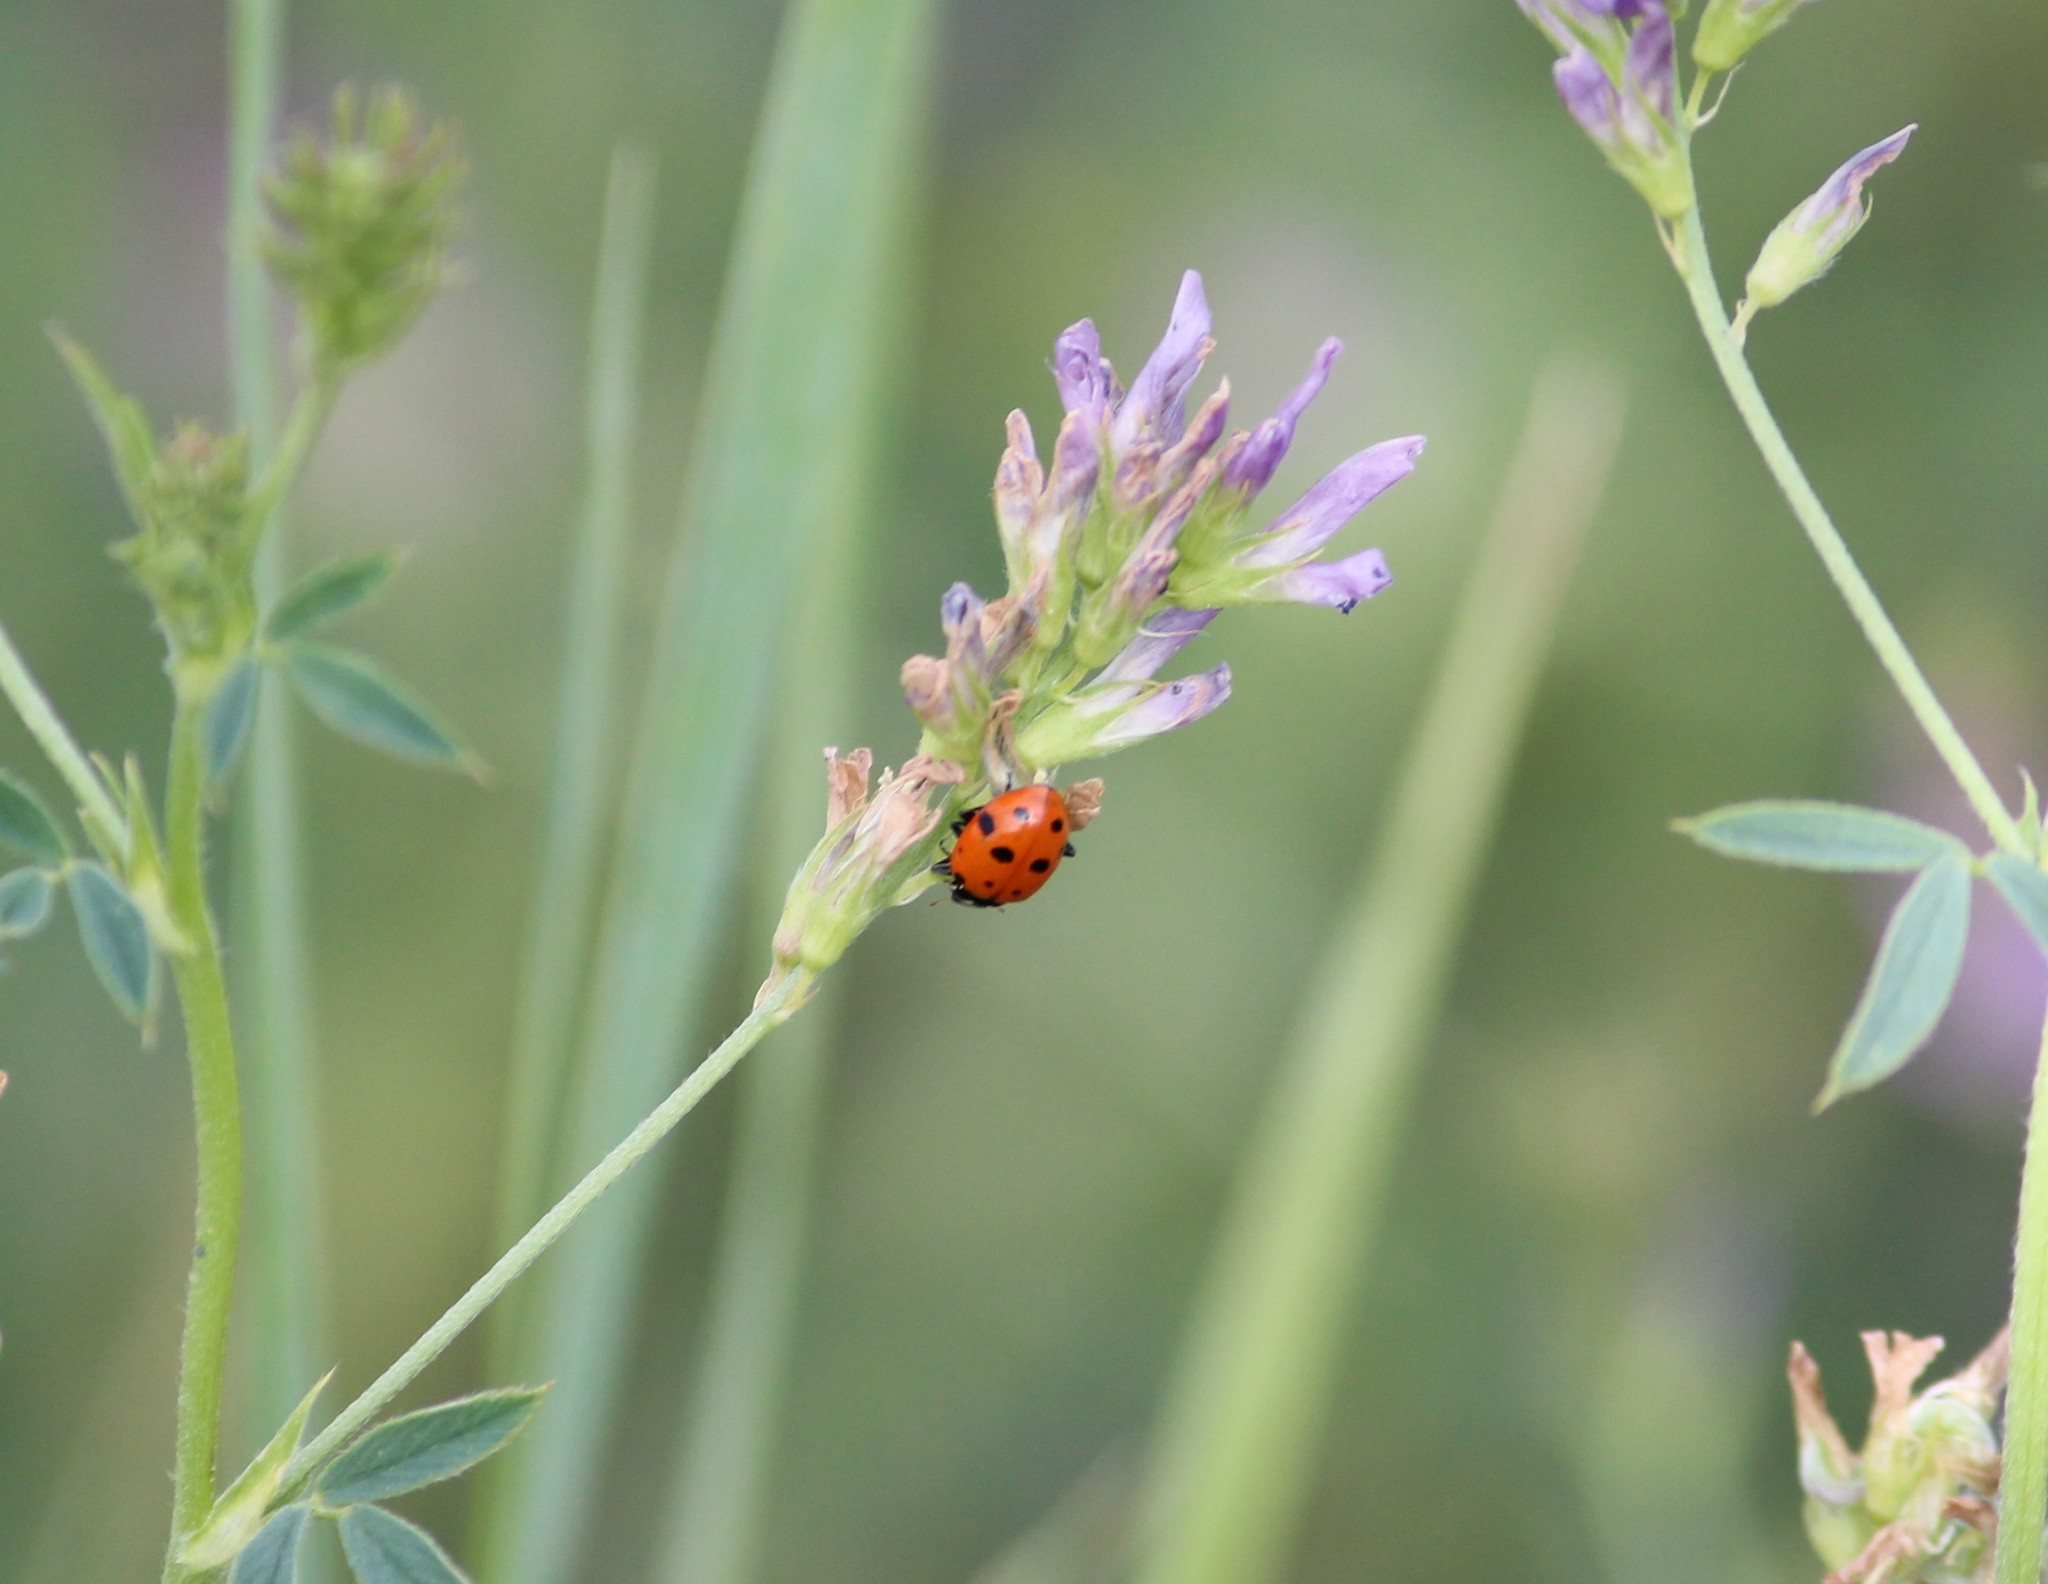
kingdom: Animalia
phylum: Arthropoda
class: Insecta
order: Coleoptera
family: Coccinellidae
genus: Hippodamia
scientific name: Hippodamia convergens
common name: Convergent lady beetle
